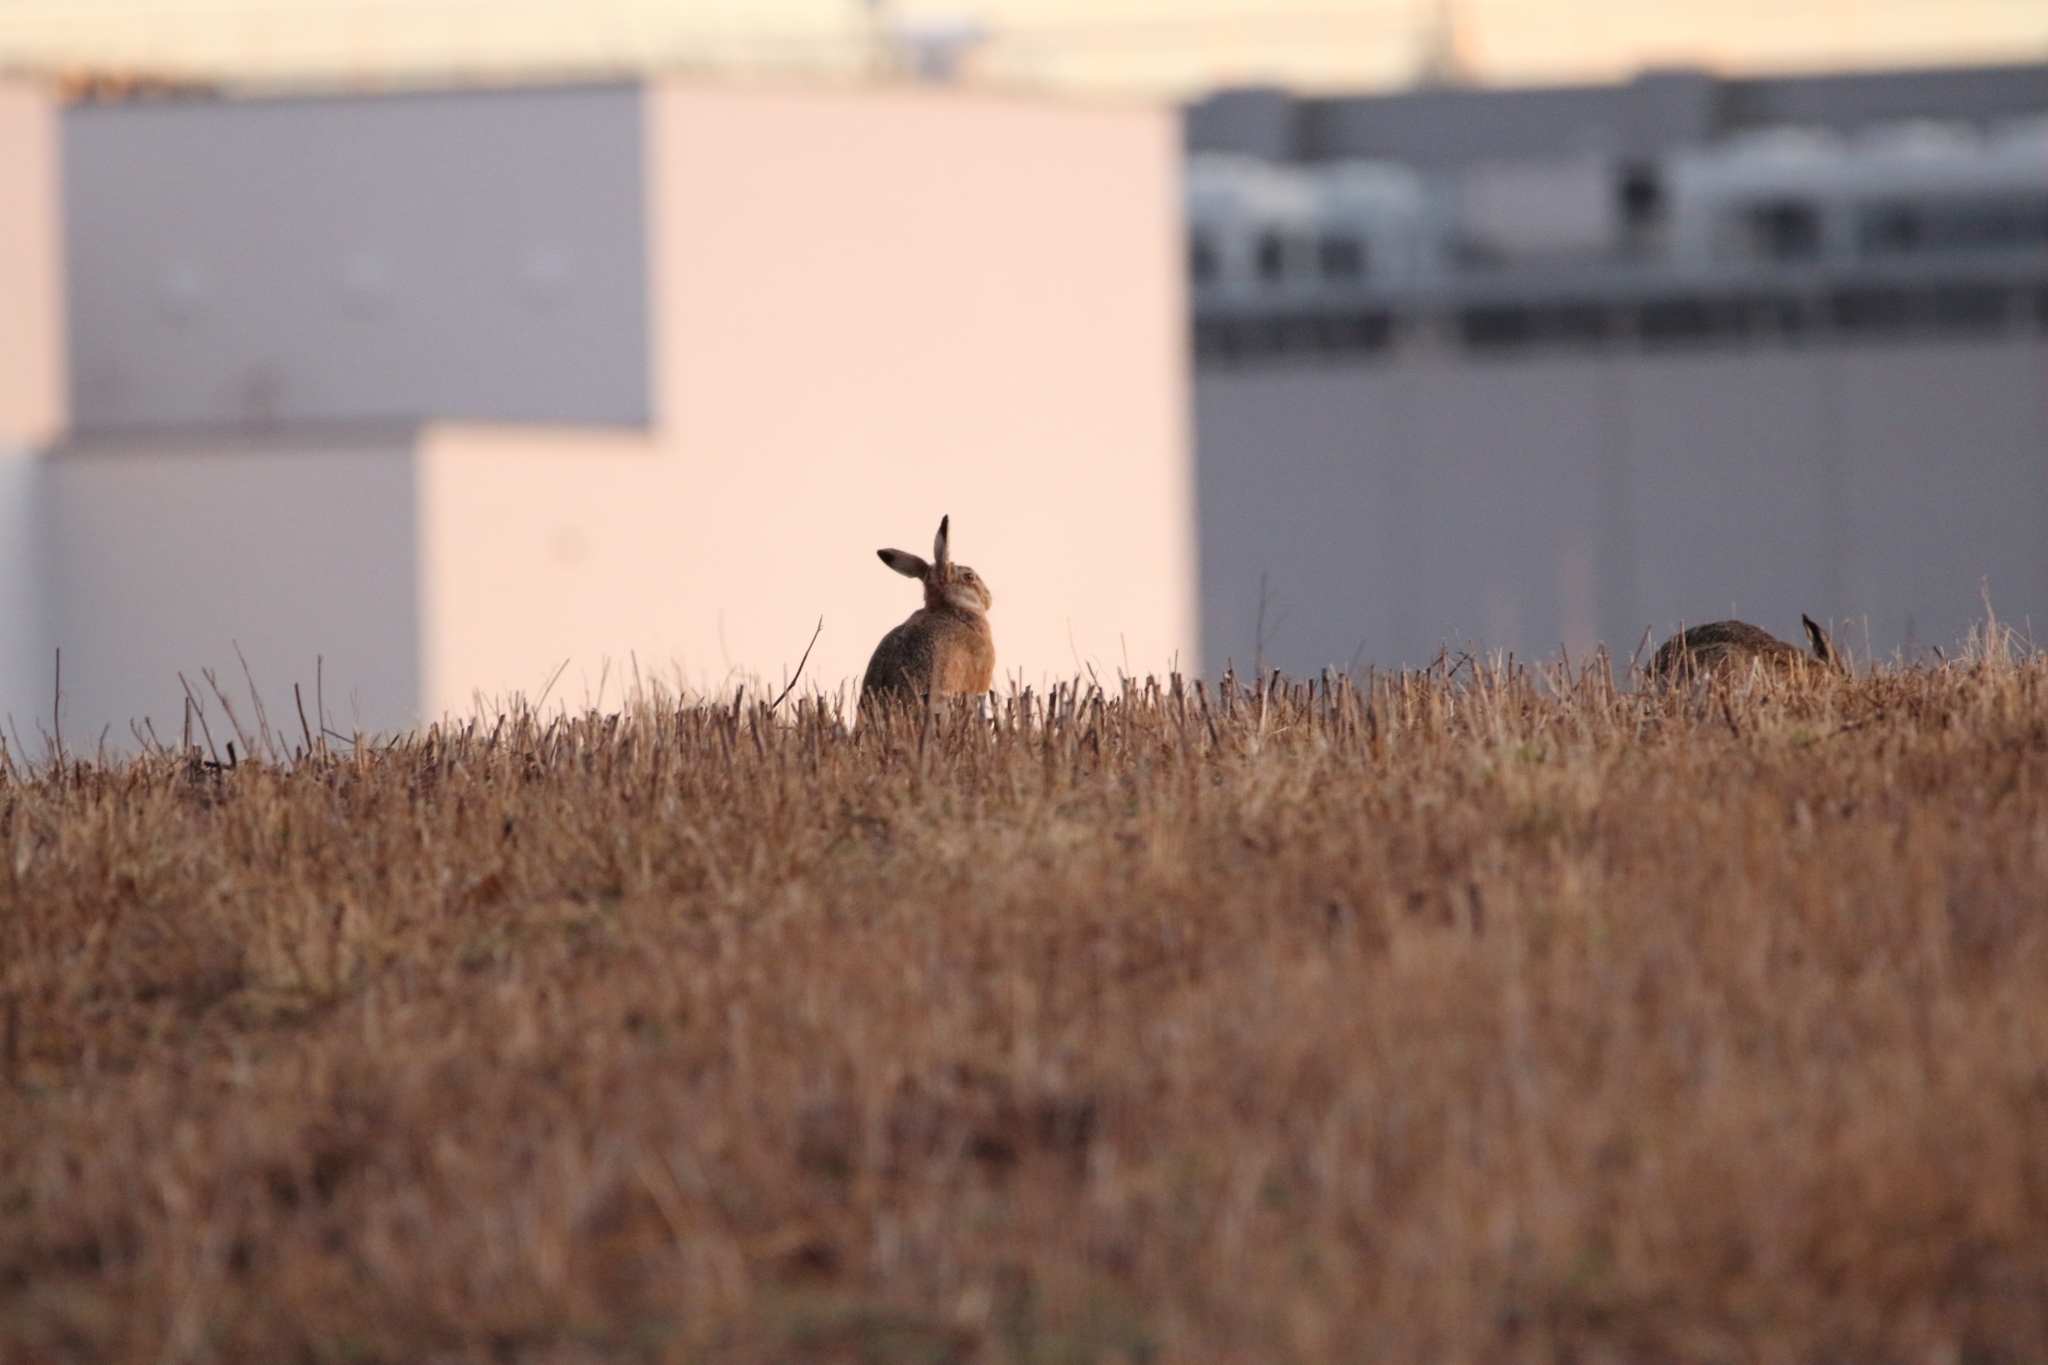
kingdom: Animalia
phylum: Chordata
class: Mammalia
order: Lagomorpha
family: Leporidae
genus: Lepus
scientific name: Lepus europaeus
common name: European hare
